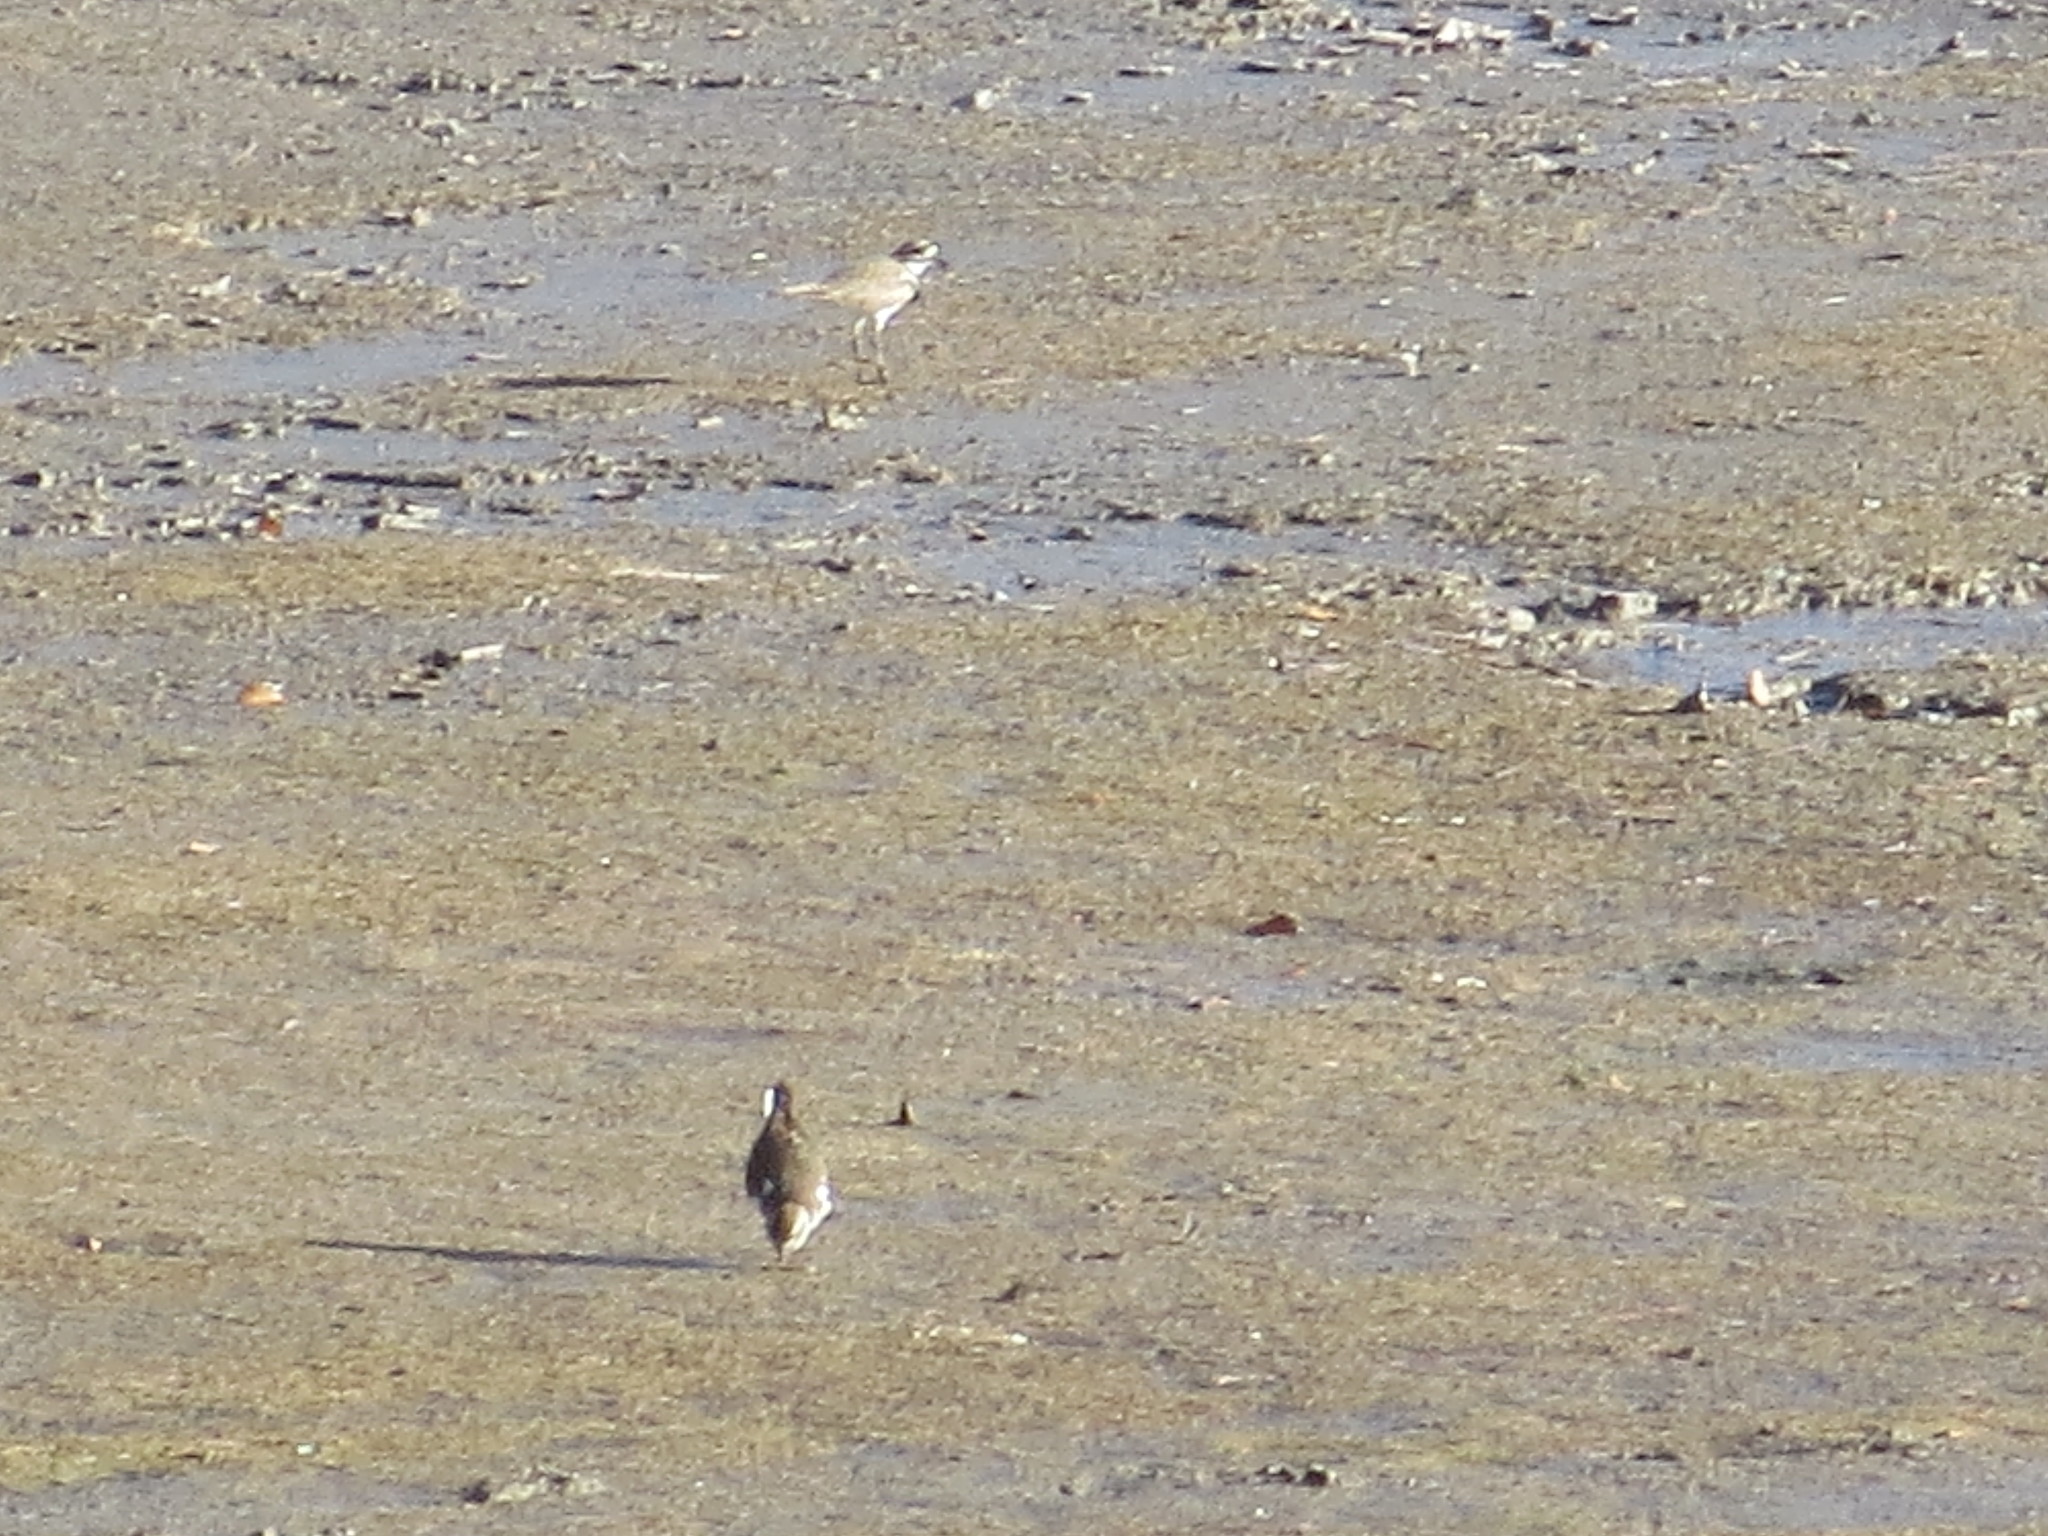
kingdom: Animalia
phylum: Chordata
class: Aves
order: Charadriiformes
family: Charadriidae
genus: Charadrius
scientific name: Charadrius vociferus
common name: Killdeer
